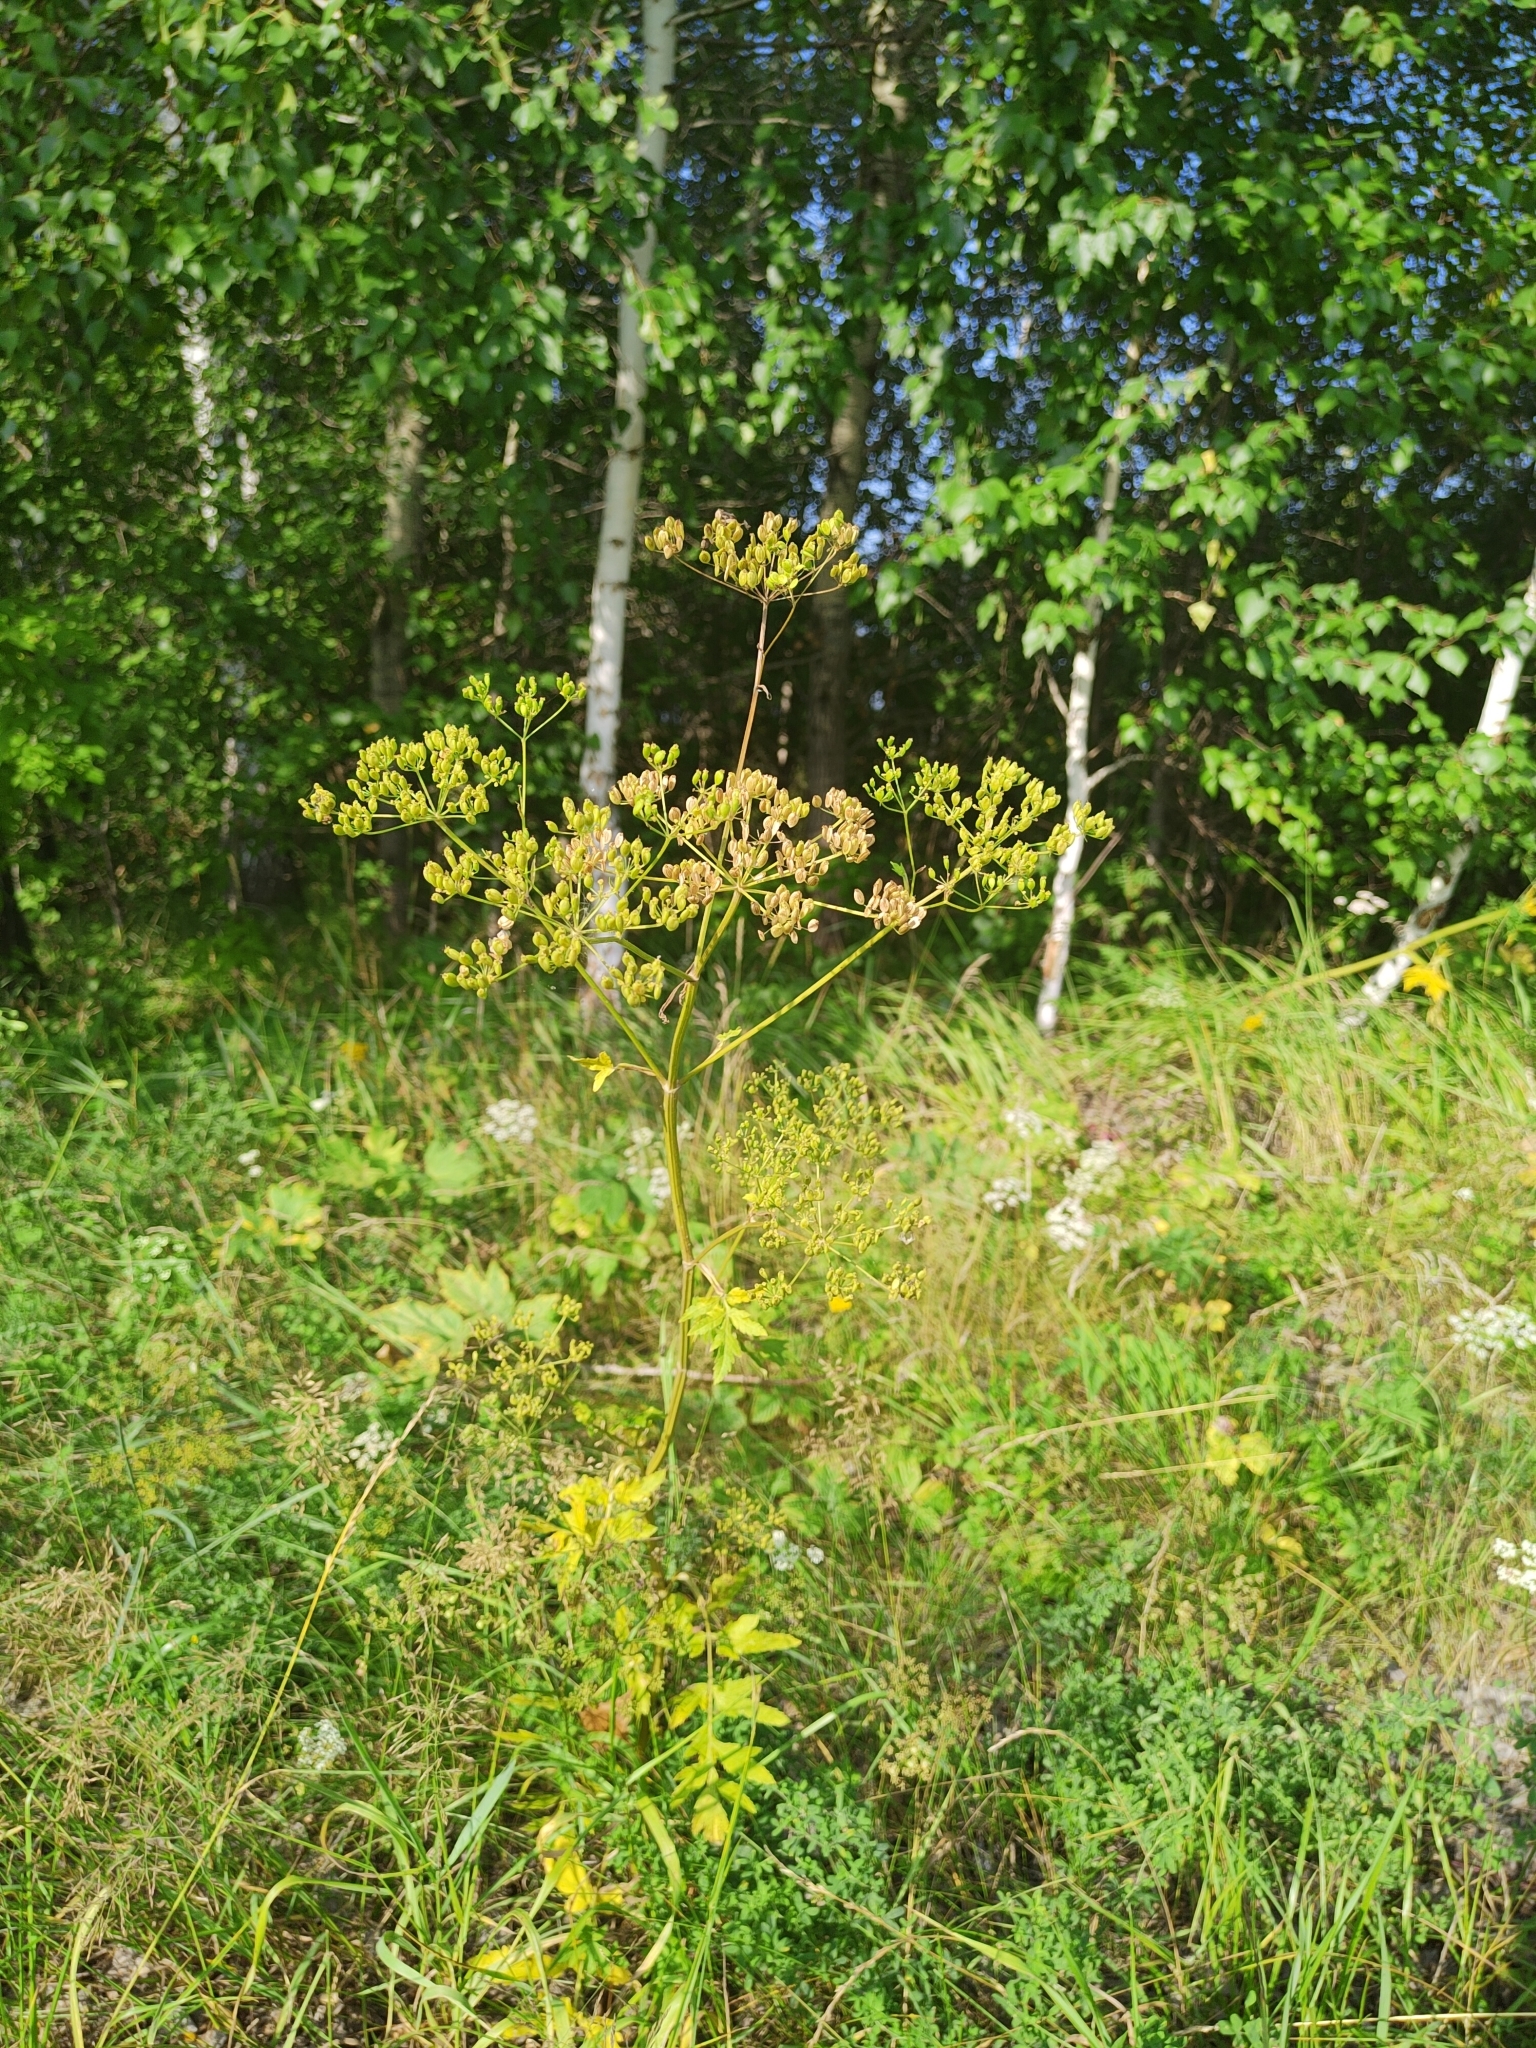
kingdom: Plantae
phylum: Tracheophyta
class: Magnoliopsida
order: Apiales
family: Apiaceae
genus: Pastinaca
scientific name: Pastinaca sativa
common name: Wild parsnip
